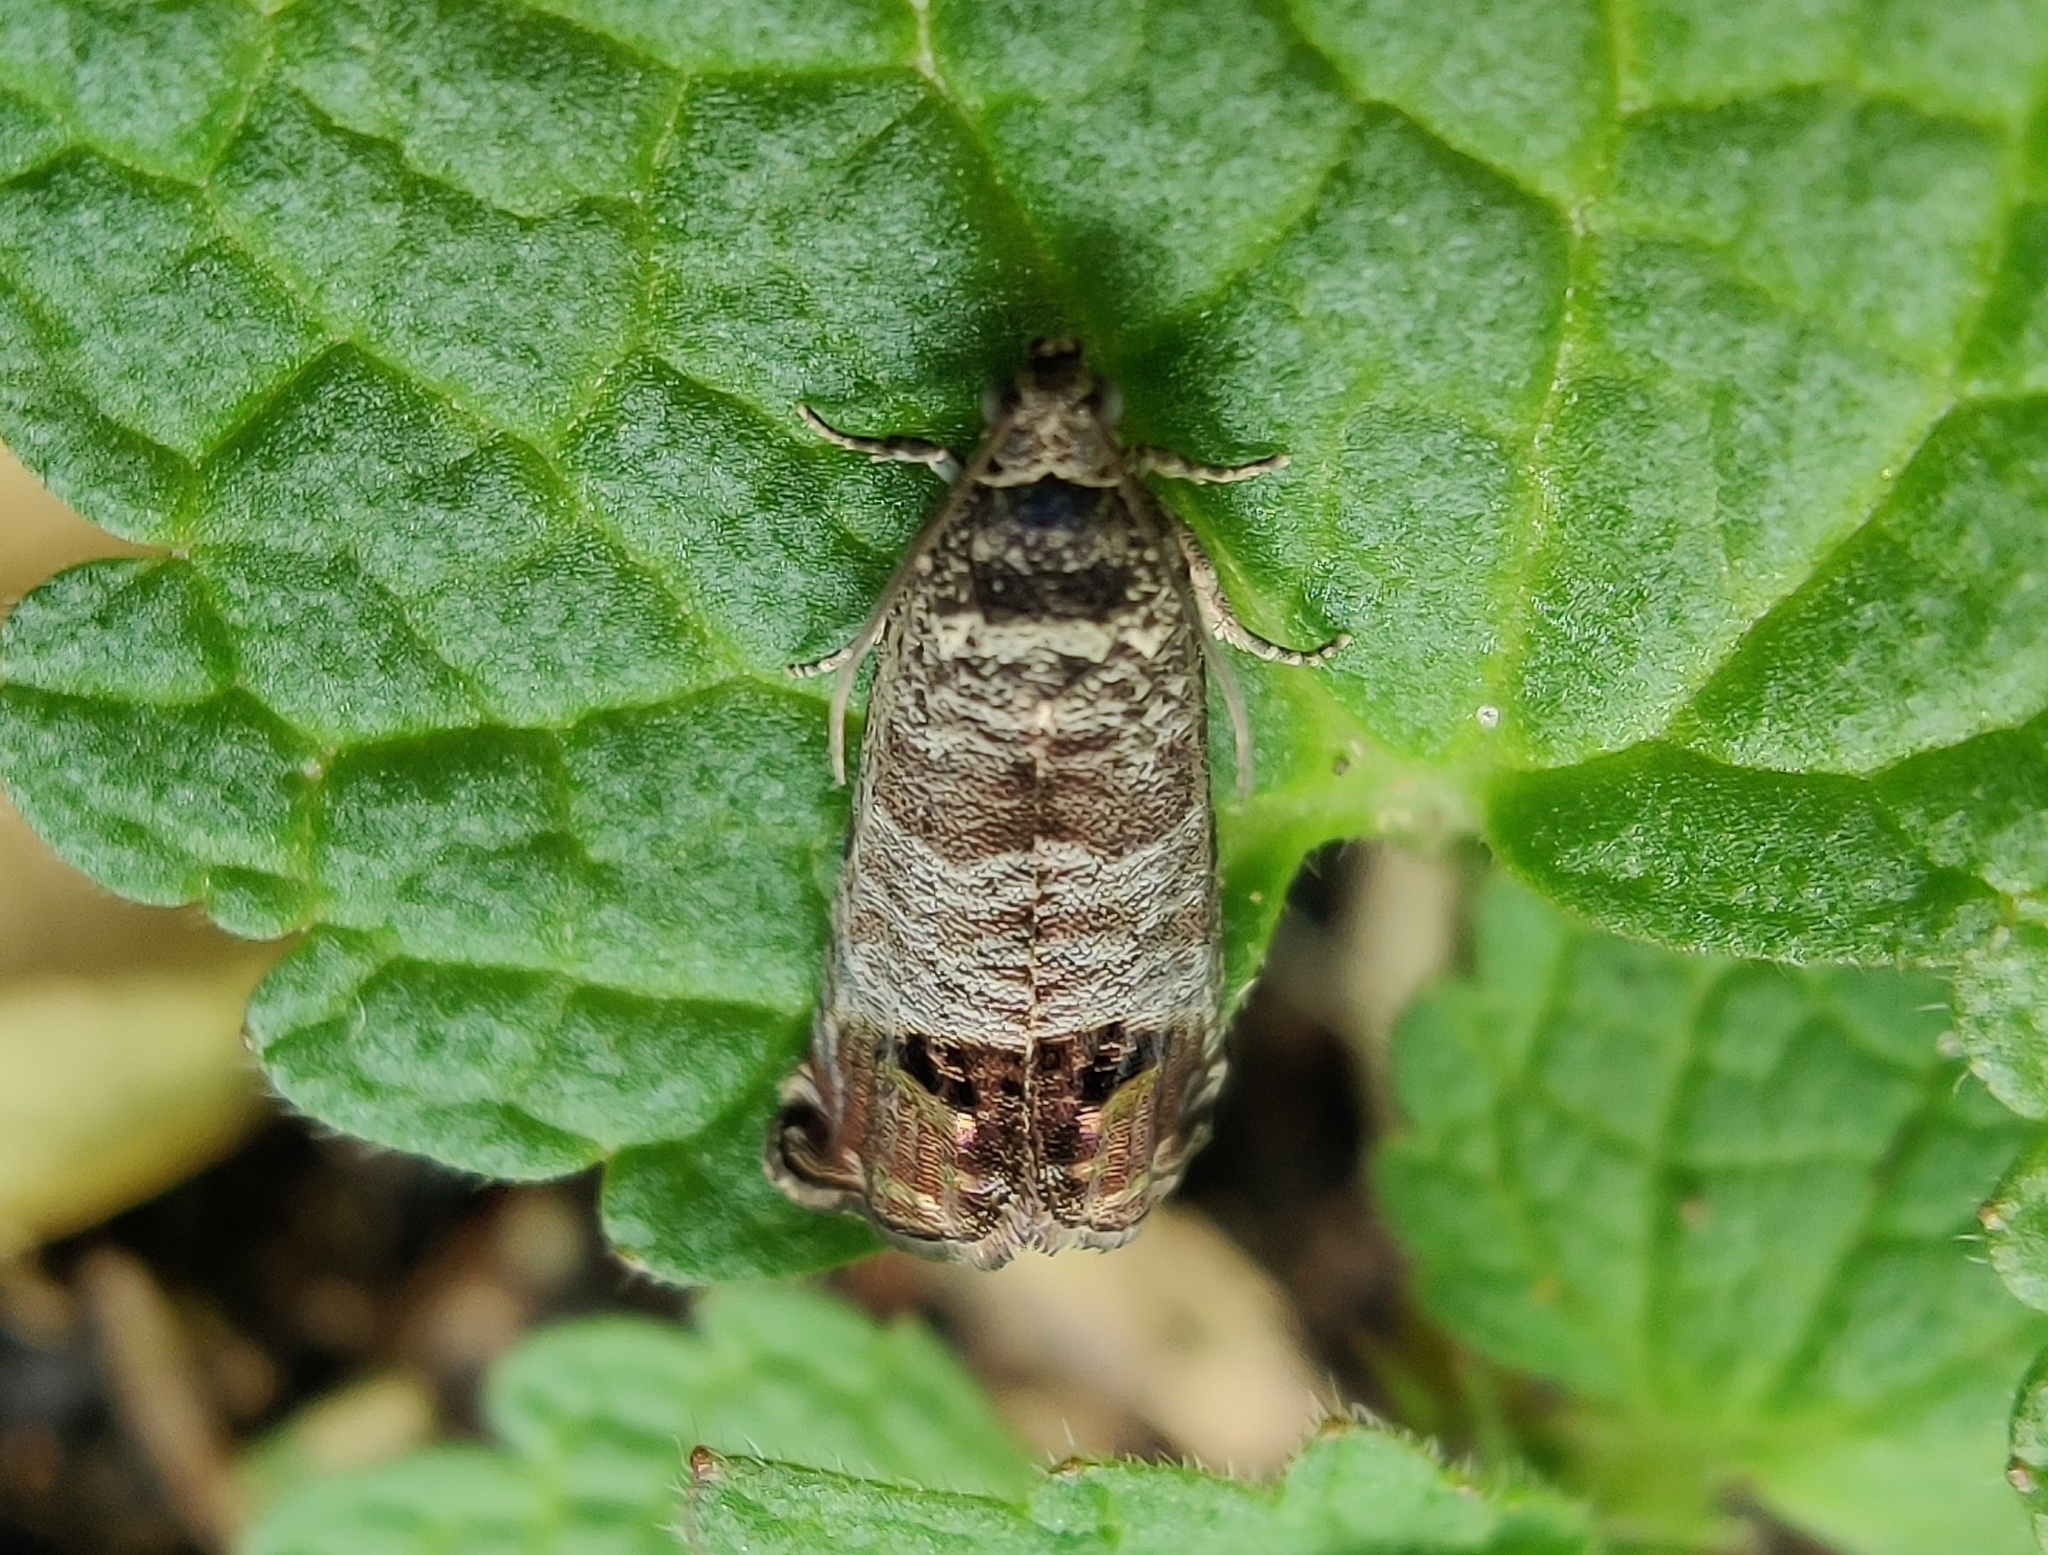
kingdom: Animalia
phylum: Arthropoda
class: Insecta
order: Lepidoptera
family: Tortricidae
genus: Cydia
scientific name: Cydia pomonella
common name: Codling moth
